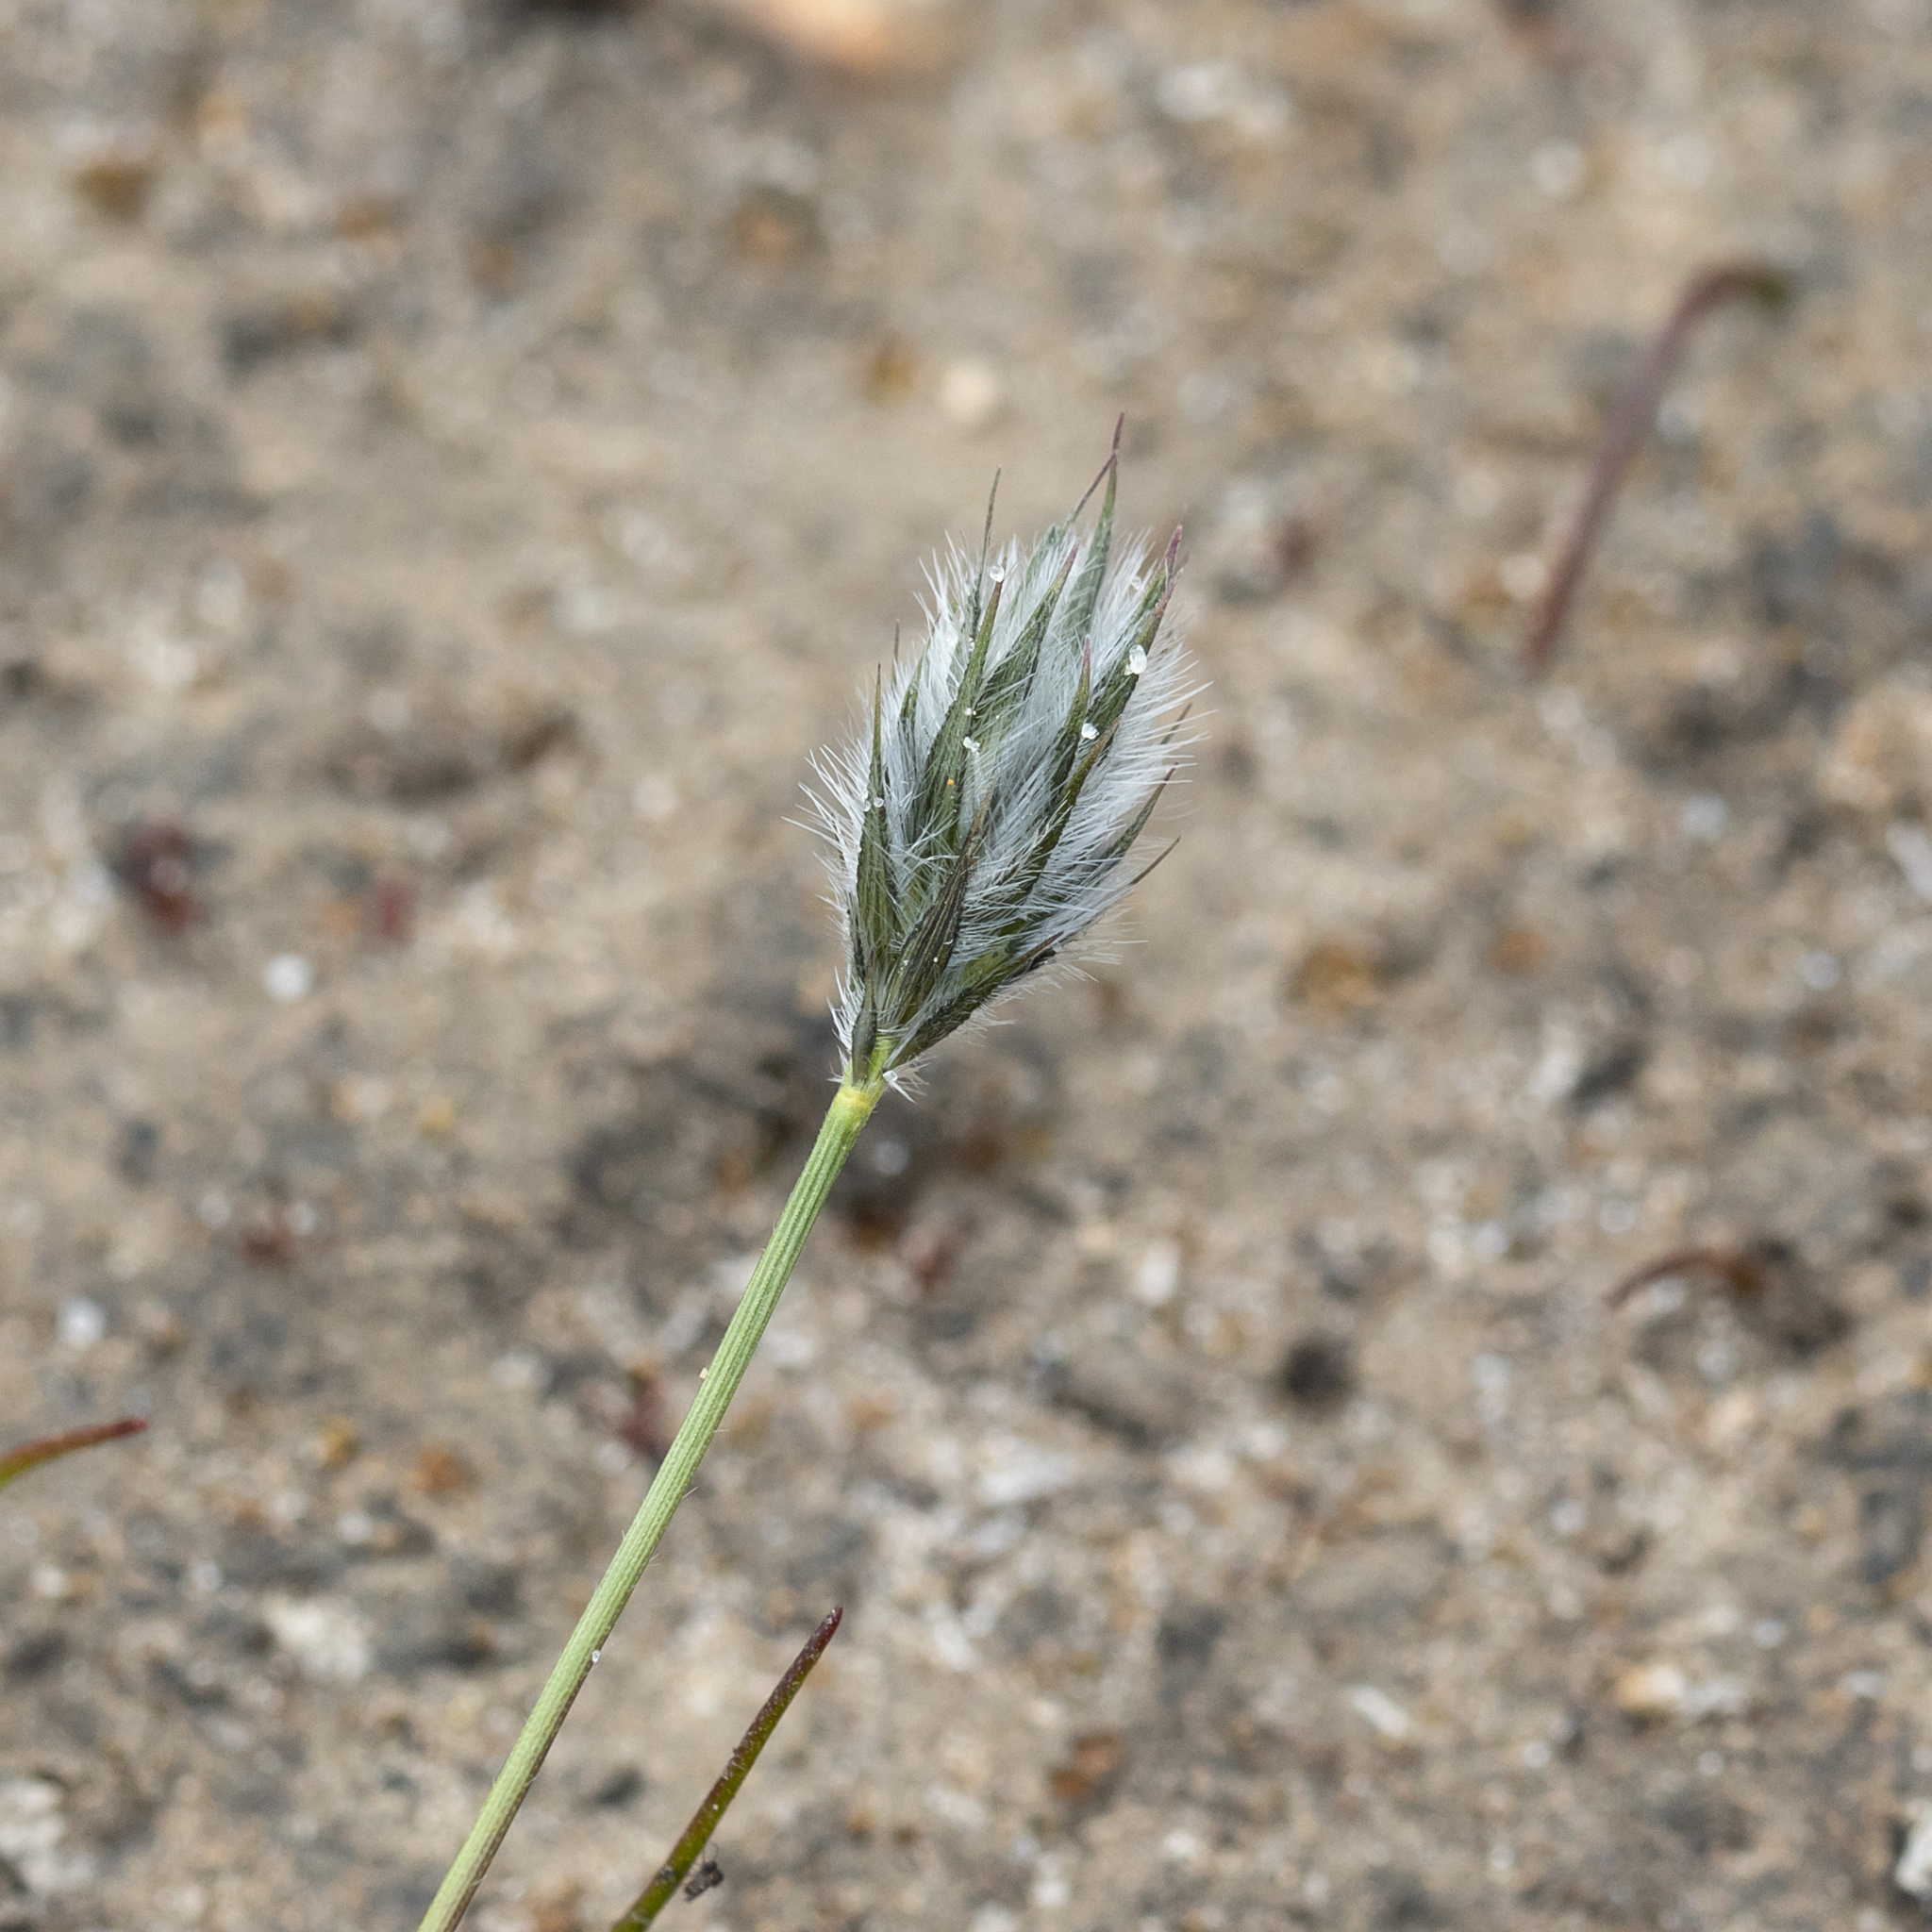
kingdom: Plantae
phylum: Tracheophyta
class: Liliopsida
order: Poales
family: Poaceae
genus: Neurachne
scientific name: Neurachne alopecuroidea
